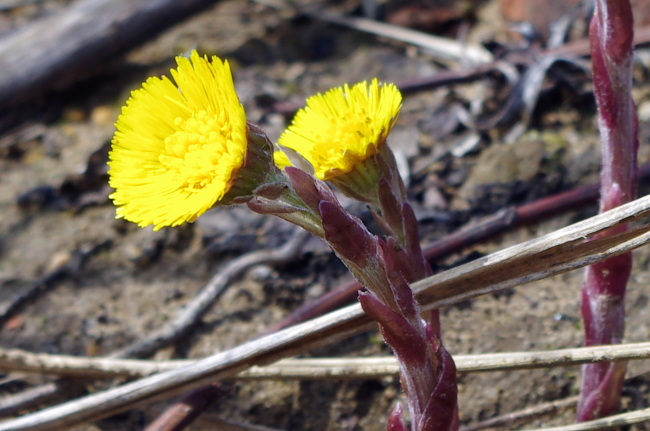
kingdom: Plantae
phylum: Tracheophyta
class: Magnoliopsida
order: Asterales
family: Asteraceae
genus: Tussilago
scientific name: Tussilago farfara
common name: Coltsfoot
